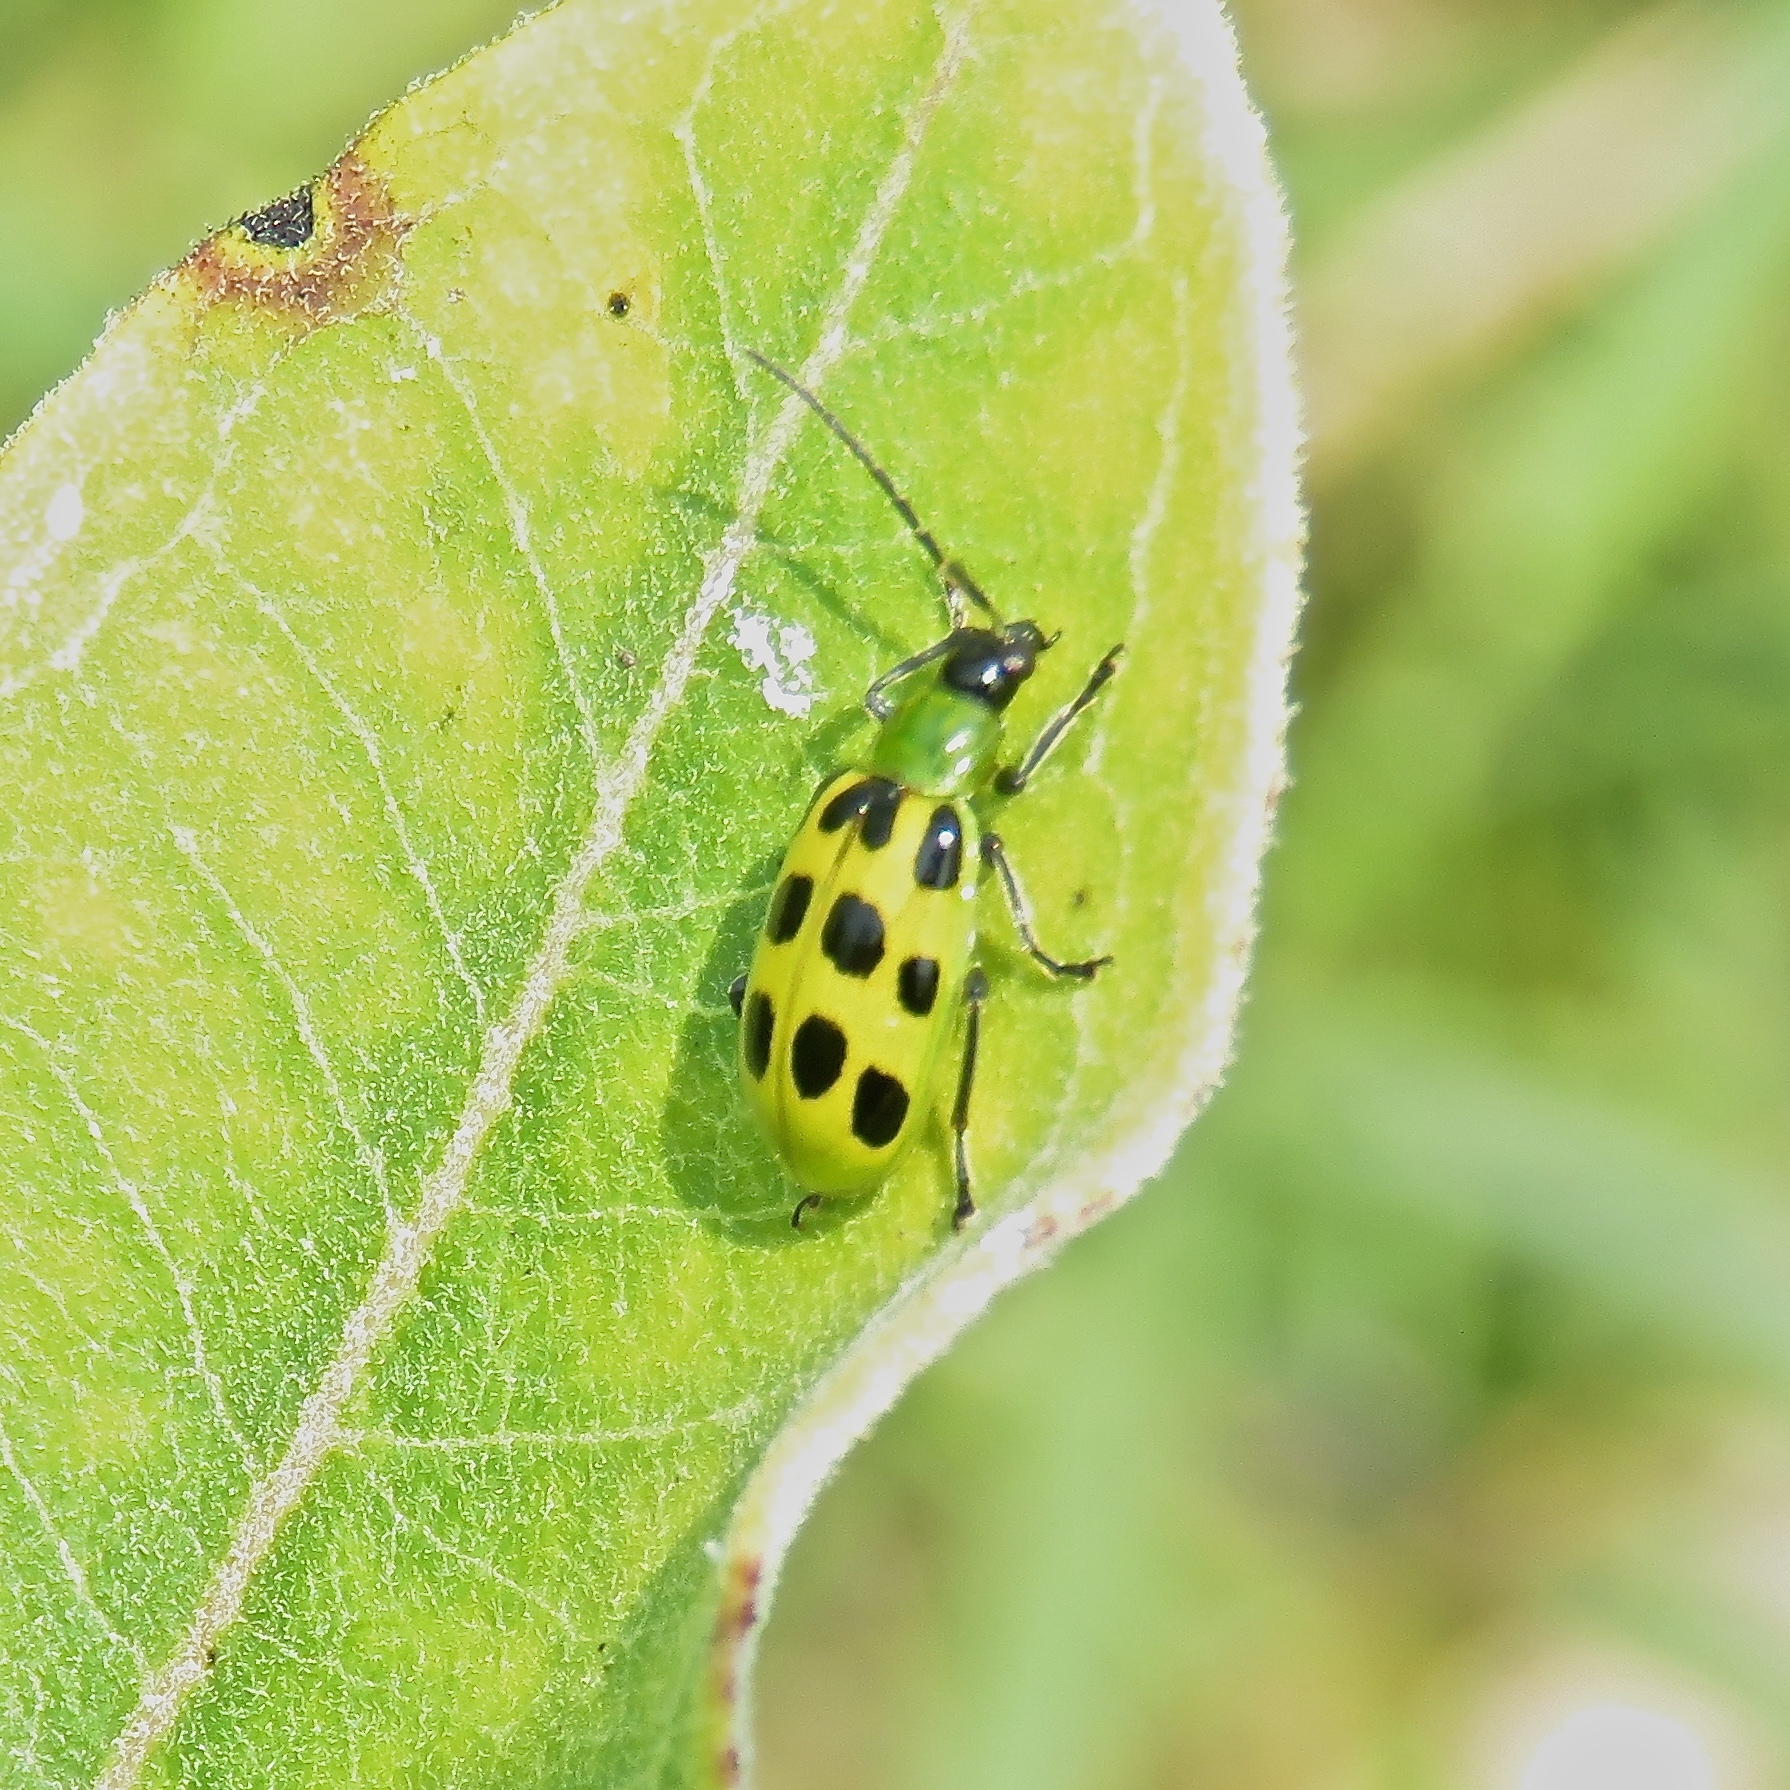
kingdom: Animalia
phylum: Arthropoda
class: Insecta
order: Coleoptera
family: Chrysomelidae
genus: Diabrotica
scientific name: Diabrotica undecimpunctata
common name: Spotted cucumber beetle
